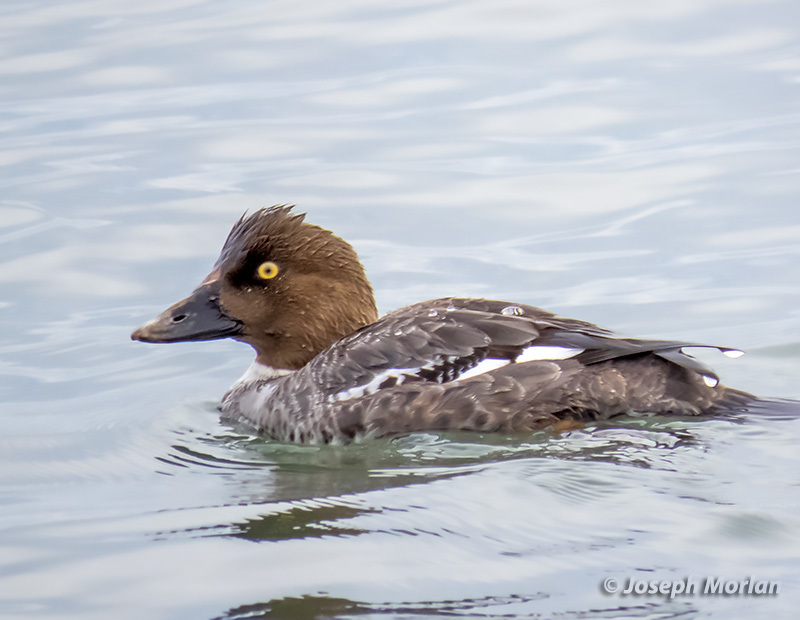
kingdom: Animalia
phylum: Chordata
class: Aves
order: Anseriformes
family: Anatidae
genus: Bucephala
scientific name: Bucephala clangula
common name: Common goldeneye
